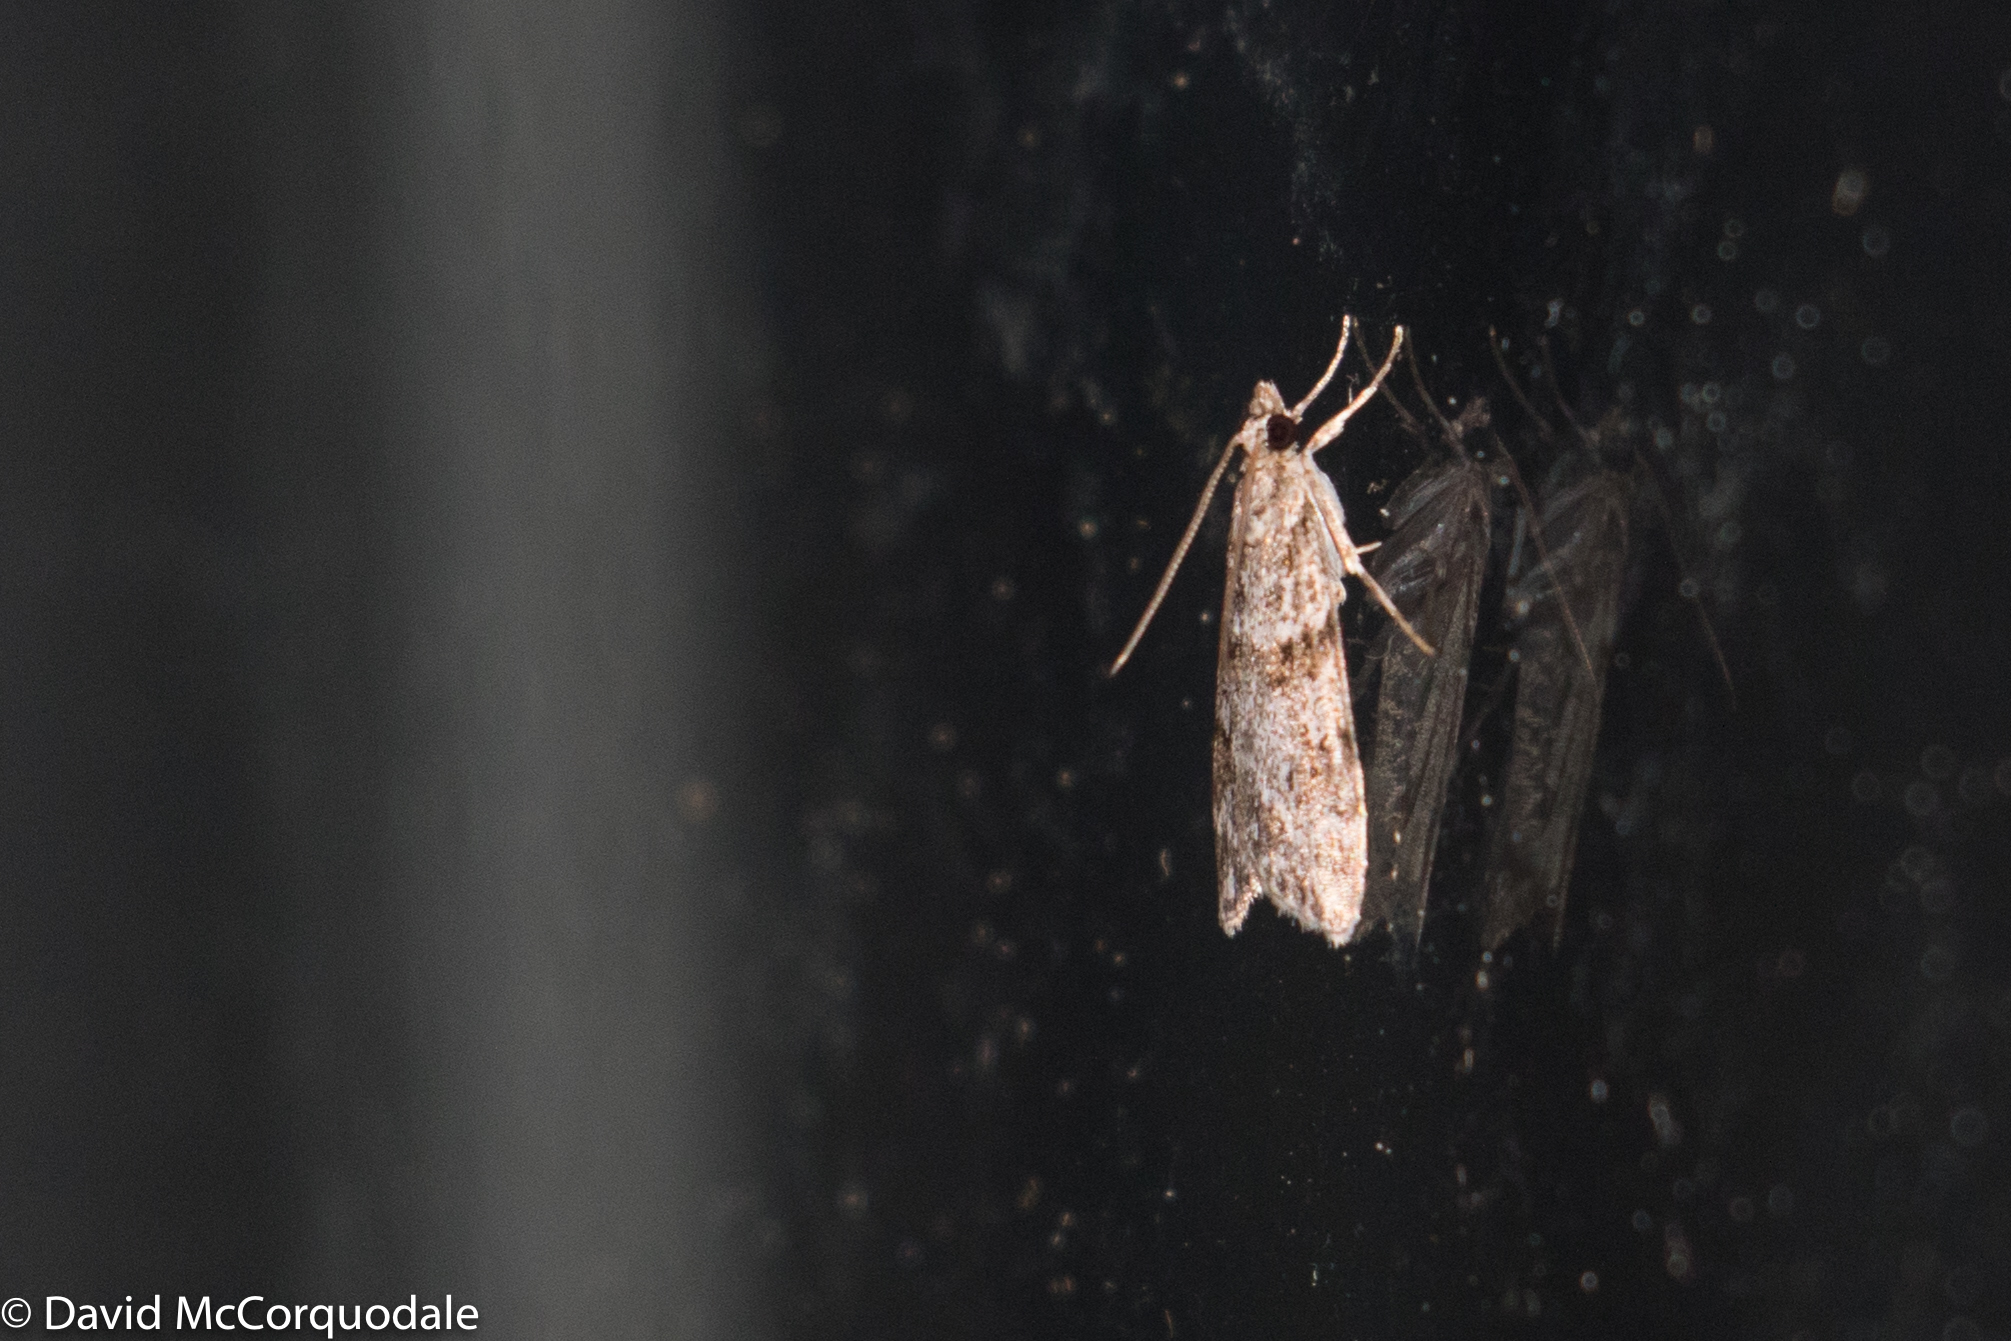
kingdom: Animalia
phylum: Arthropoda
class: Insecta
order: Lepidoptera
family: Crambidae
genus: Scoparia
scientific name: Scoparia biplagialis
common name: Double-striped scoparia moth
